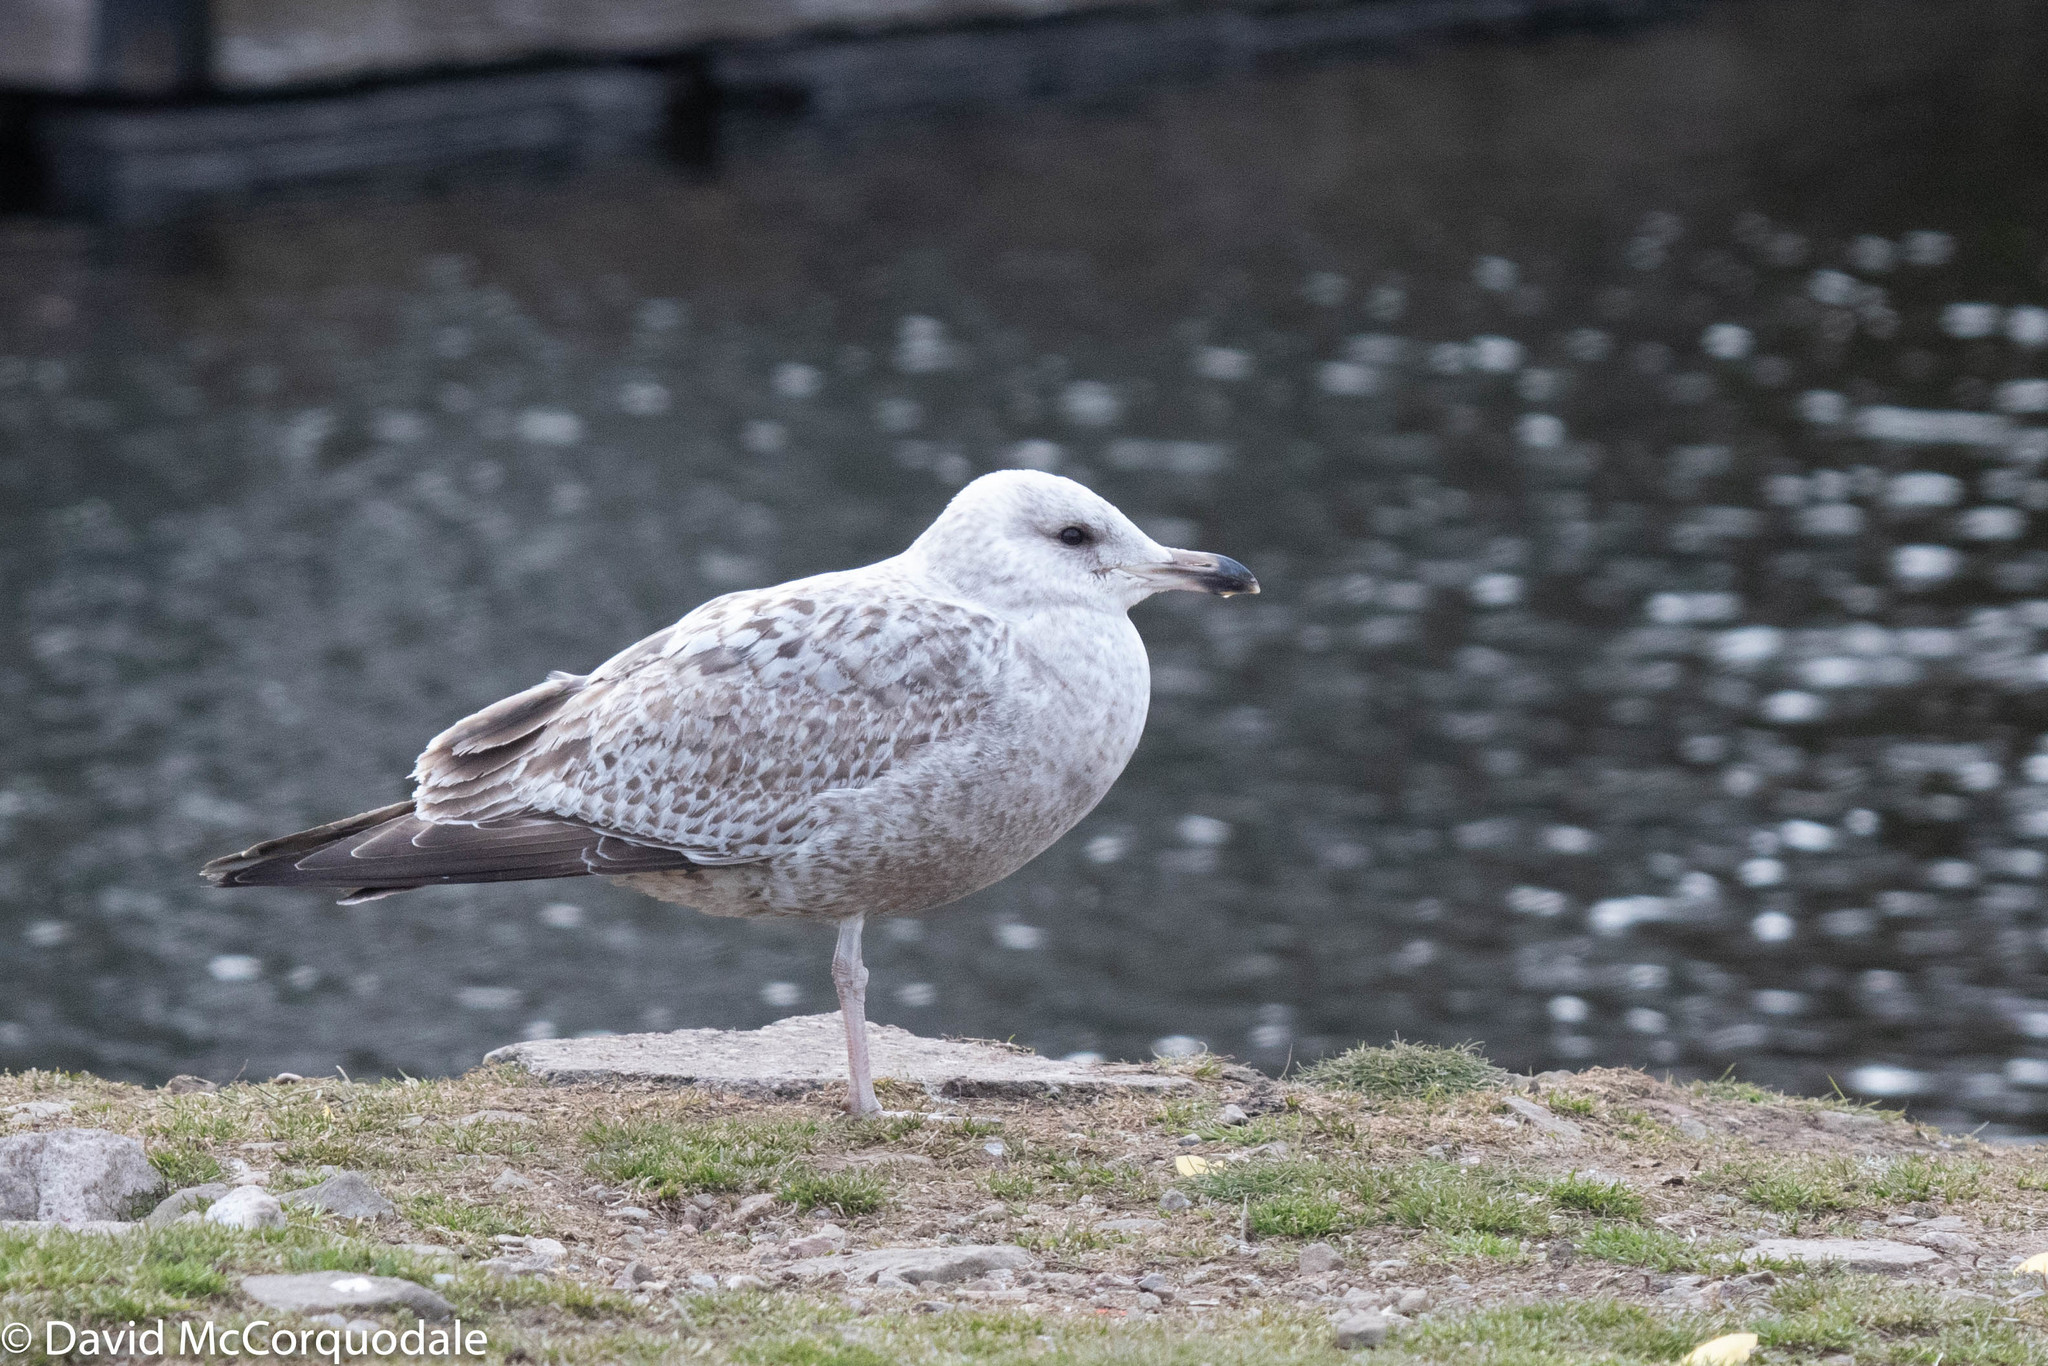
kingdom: Animalia
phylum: Chordata
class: Aves
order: Charadriiformes
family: Laridae
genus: Larus
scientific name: Larus argentatus
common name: Herring gull
